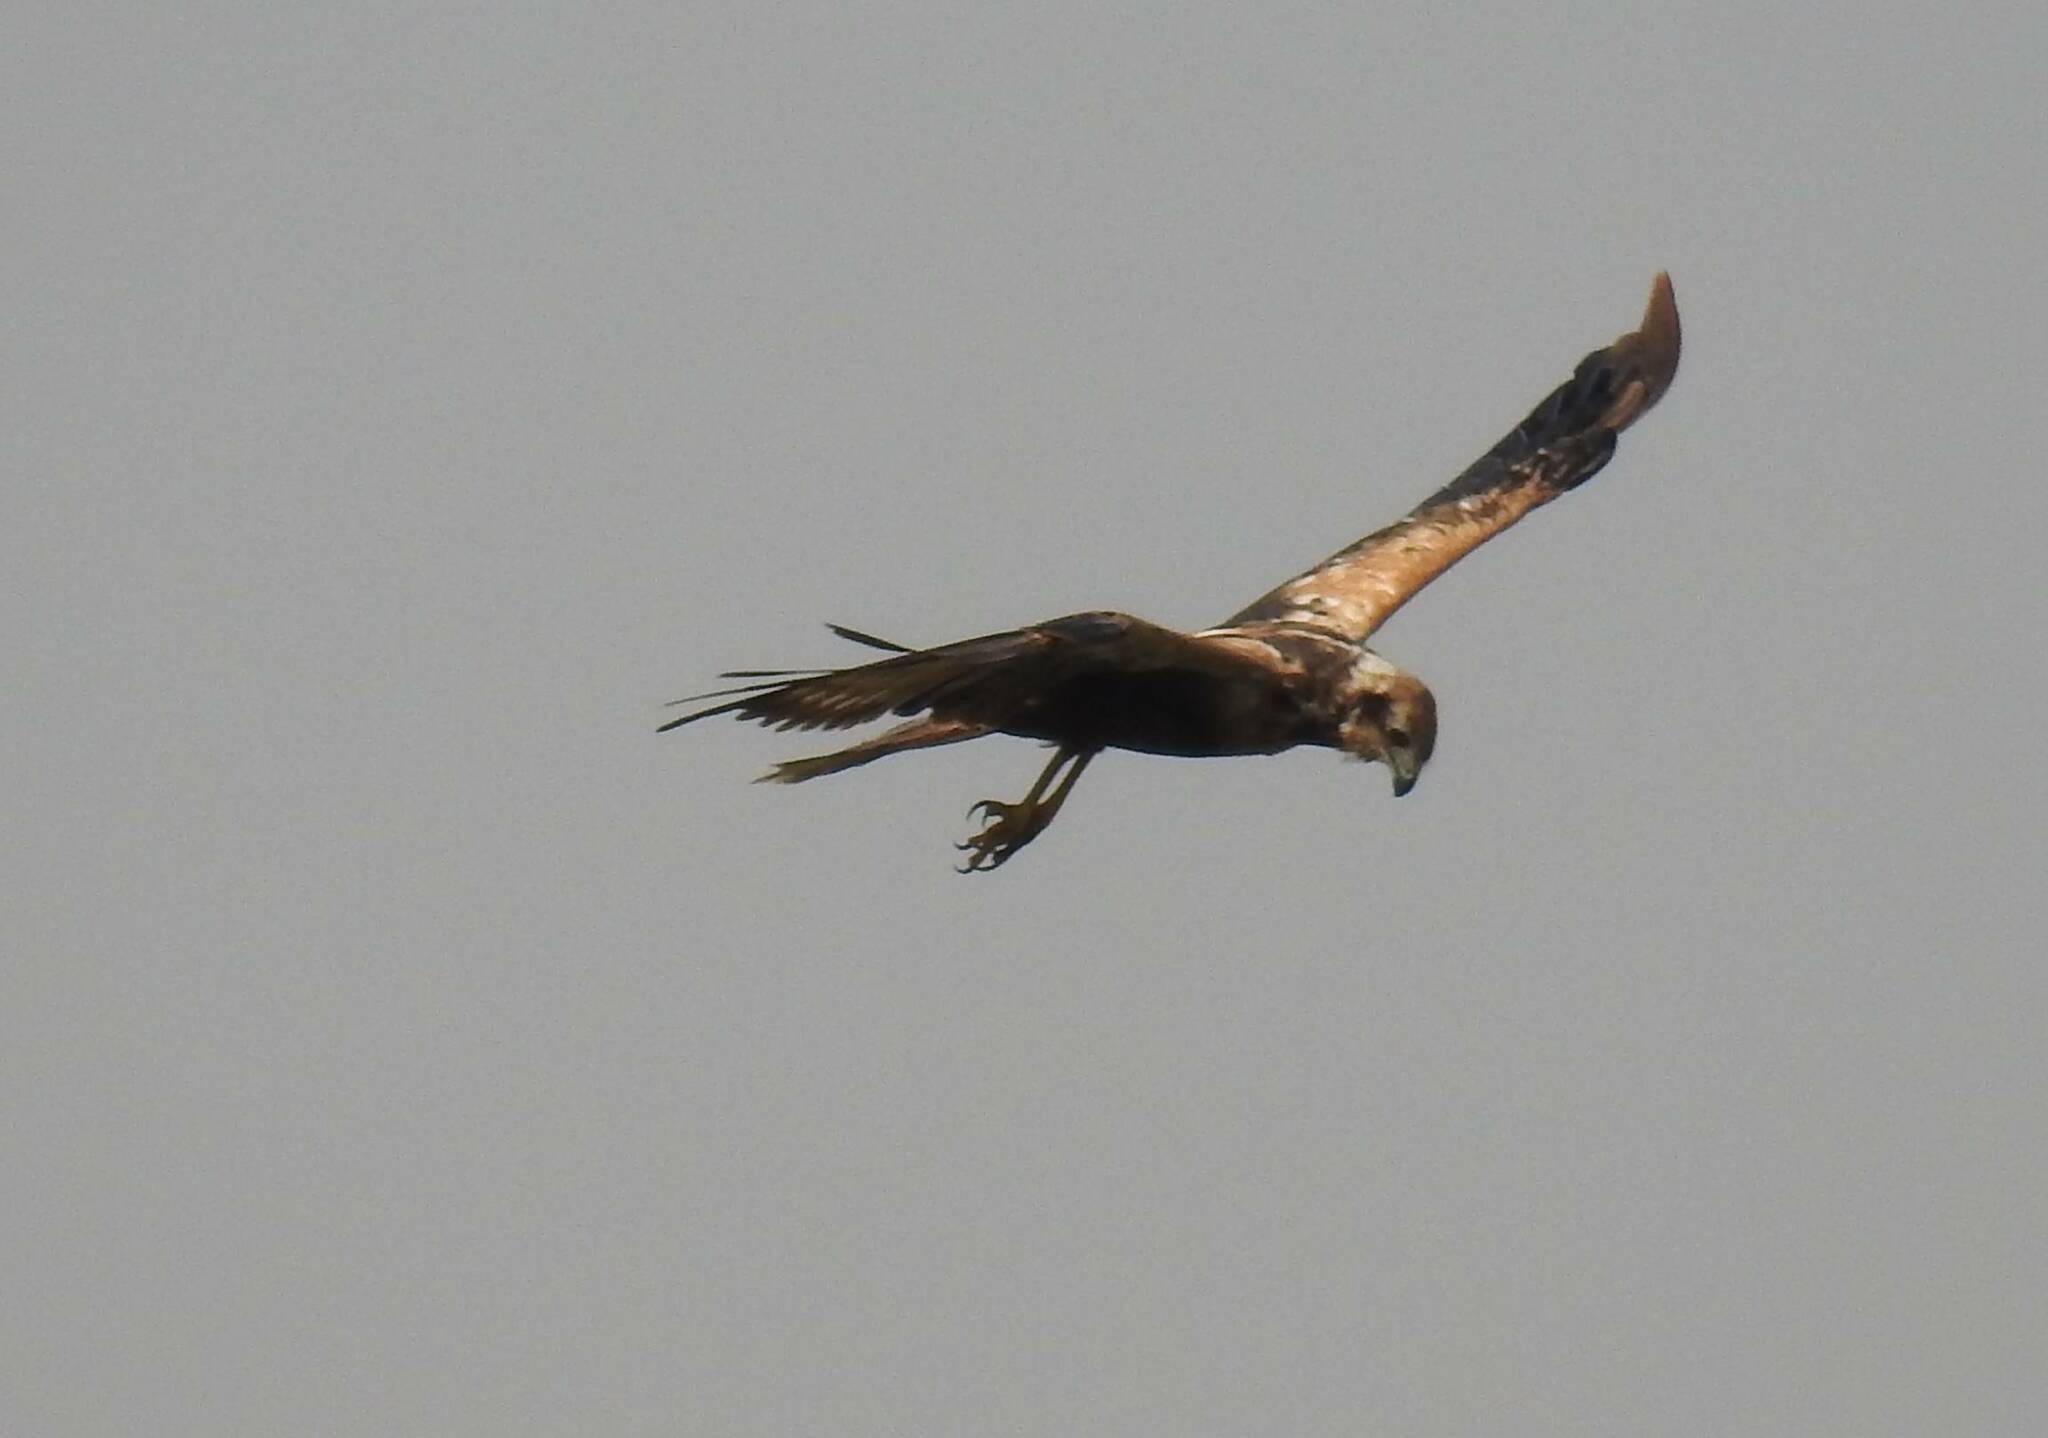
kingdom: Animalia
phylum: Chordata
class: Aves
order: Accipitriformes
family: Accipitridae
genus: Circus
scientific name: Circus aeruginosus
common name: Western marsh harrier
